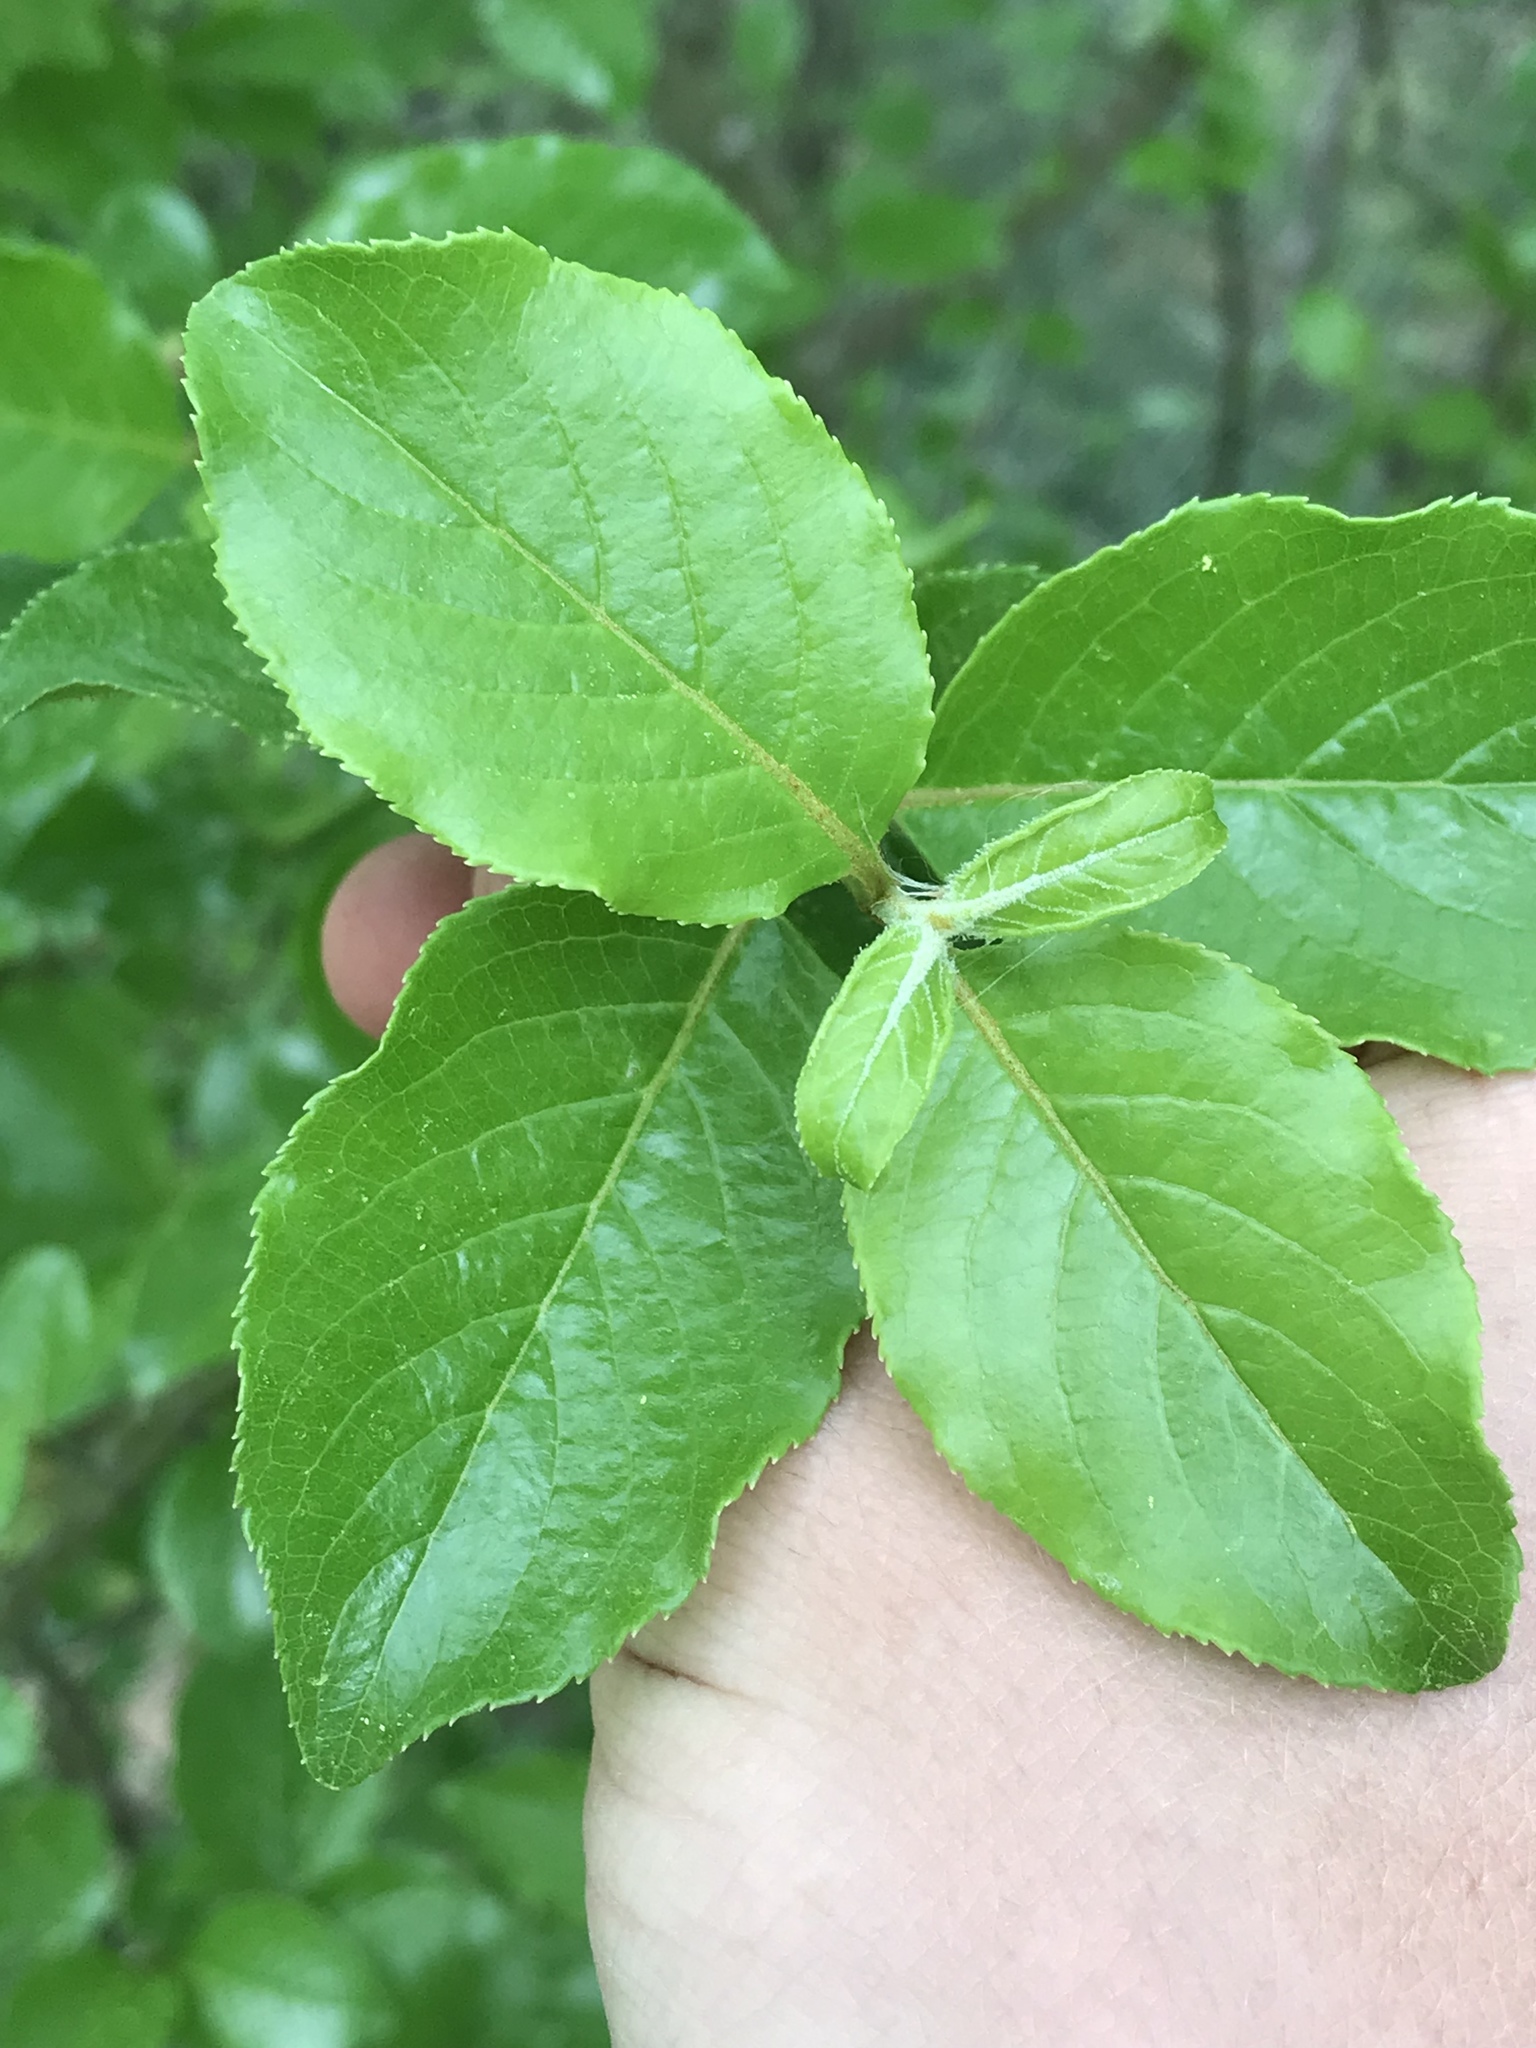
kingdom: Plantae
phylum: Tracheophyta
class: Magnoliopsida
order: Dipsacales
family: Viburnaceae
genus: Viburnum
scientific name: Viburnum rufidulum
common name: Blue haw
